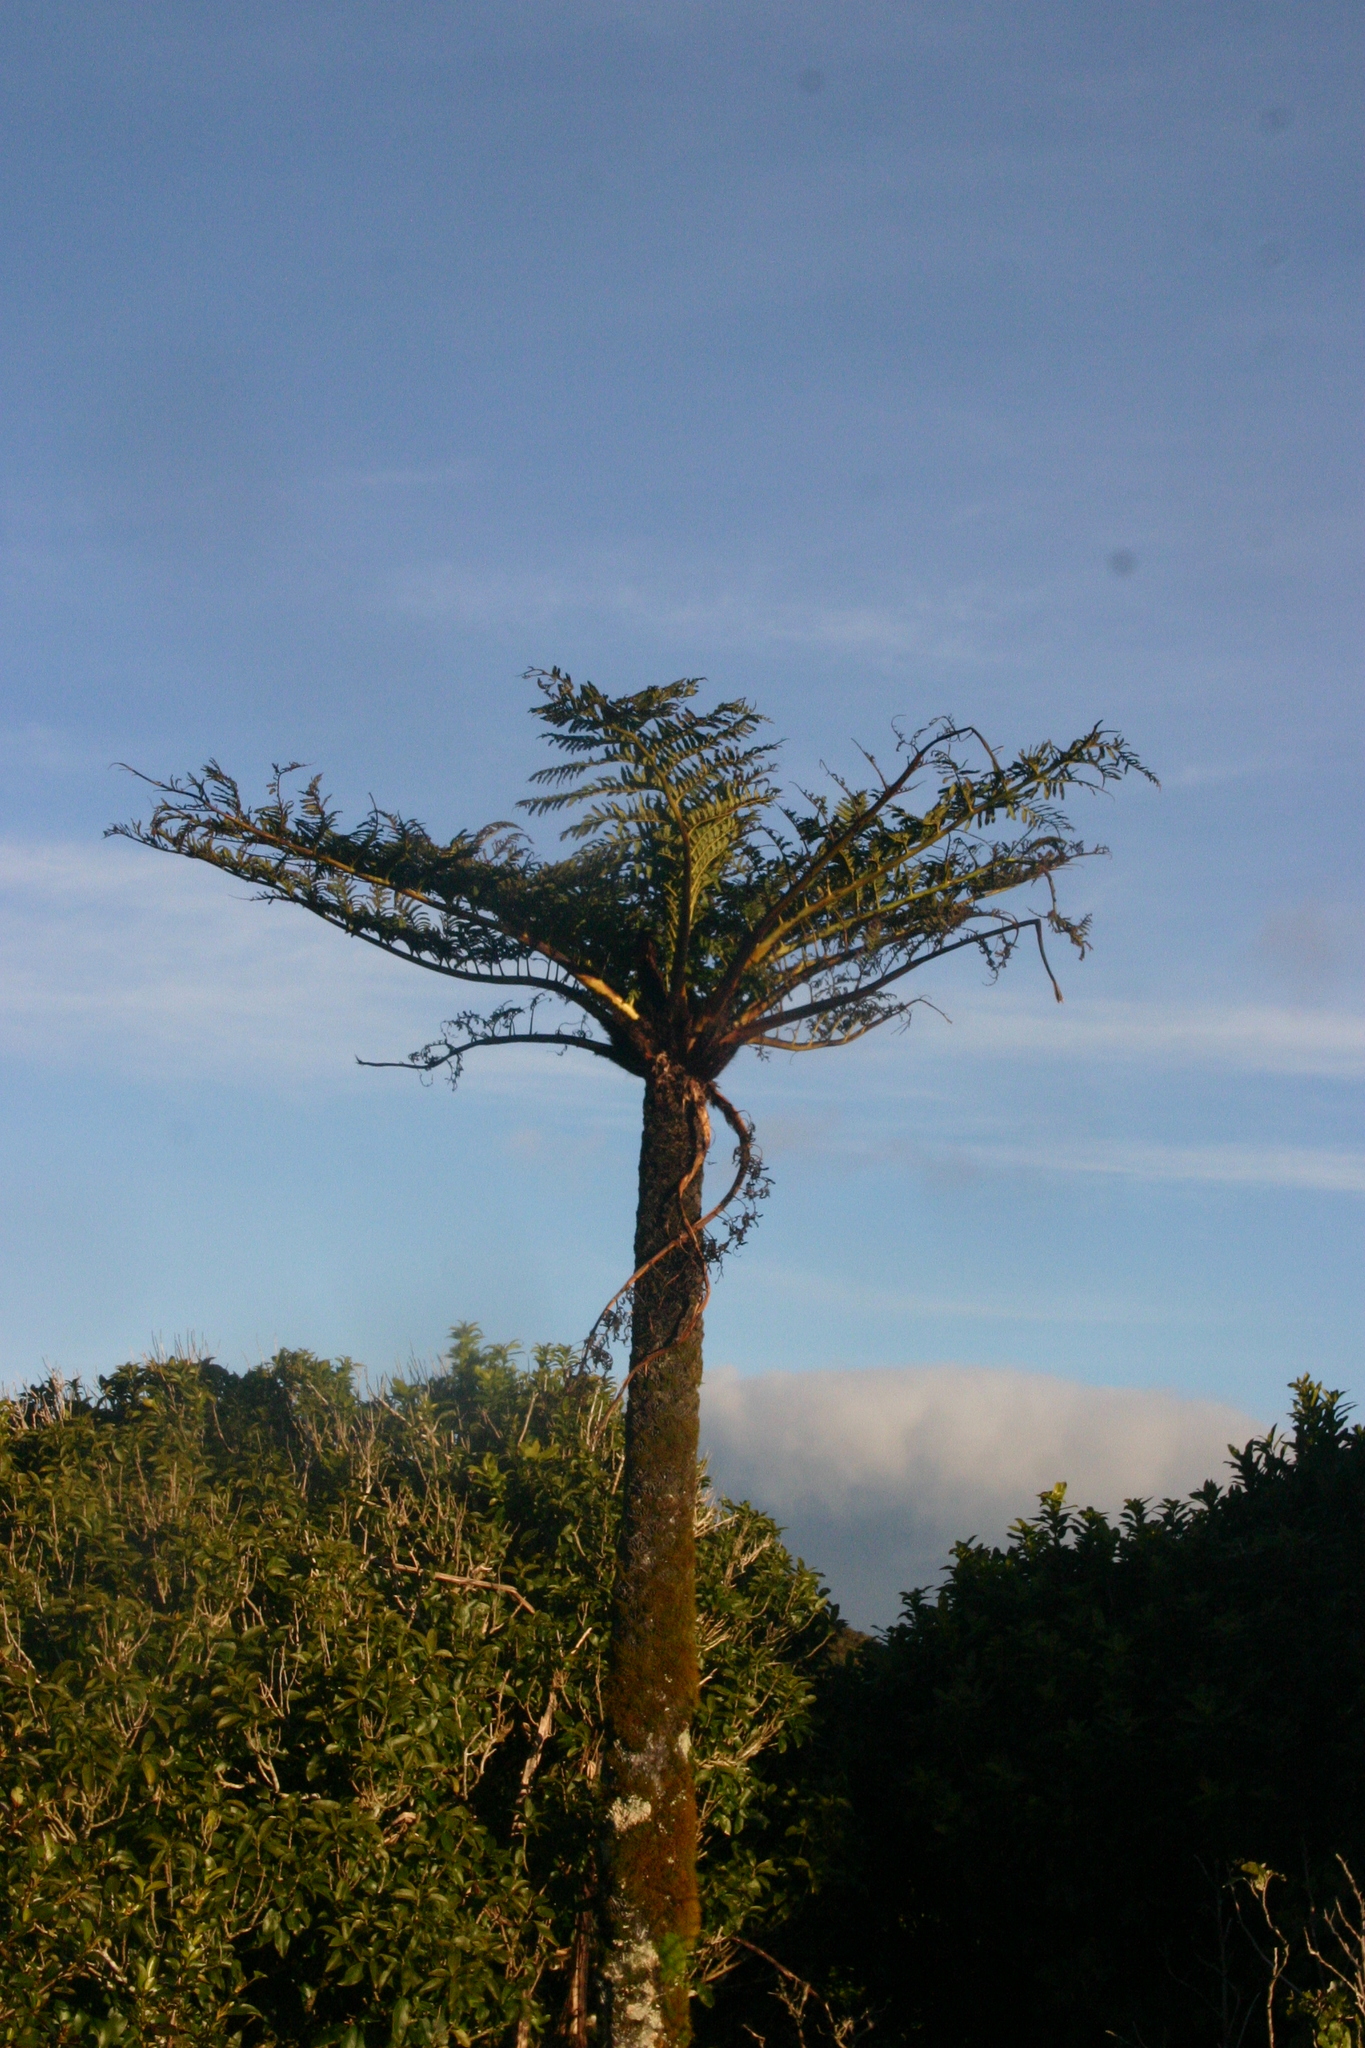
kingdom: Plantae
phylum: Tracheophyta
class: Polypodiopsida
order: Cyatheales
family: Cyatheaceae
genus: Sphaeropteris
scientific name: Sphaeropteris medullaris
